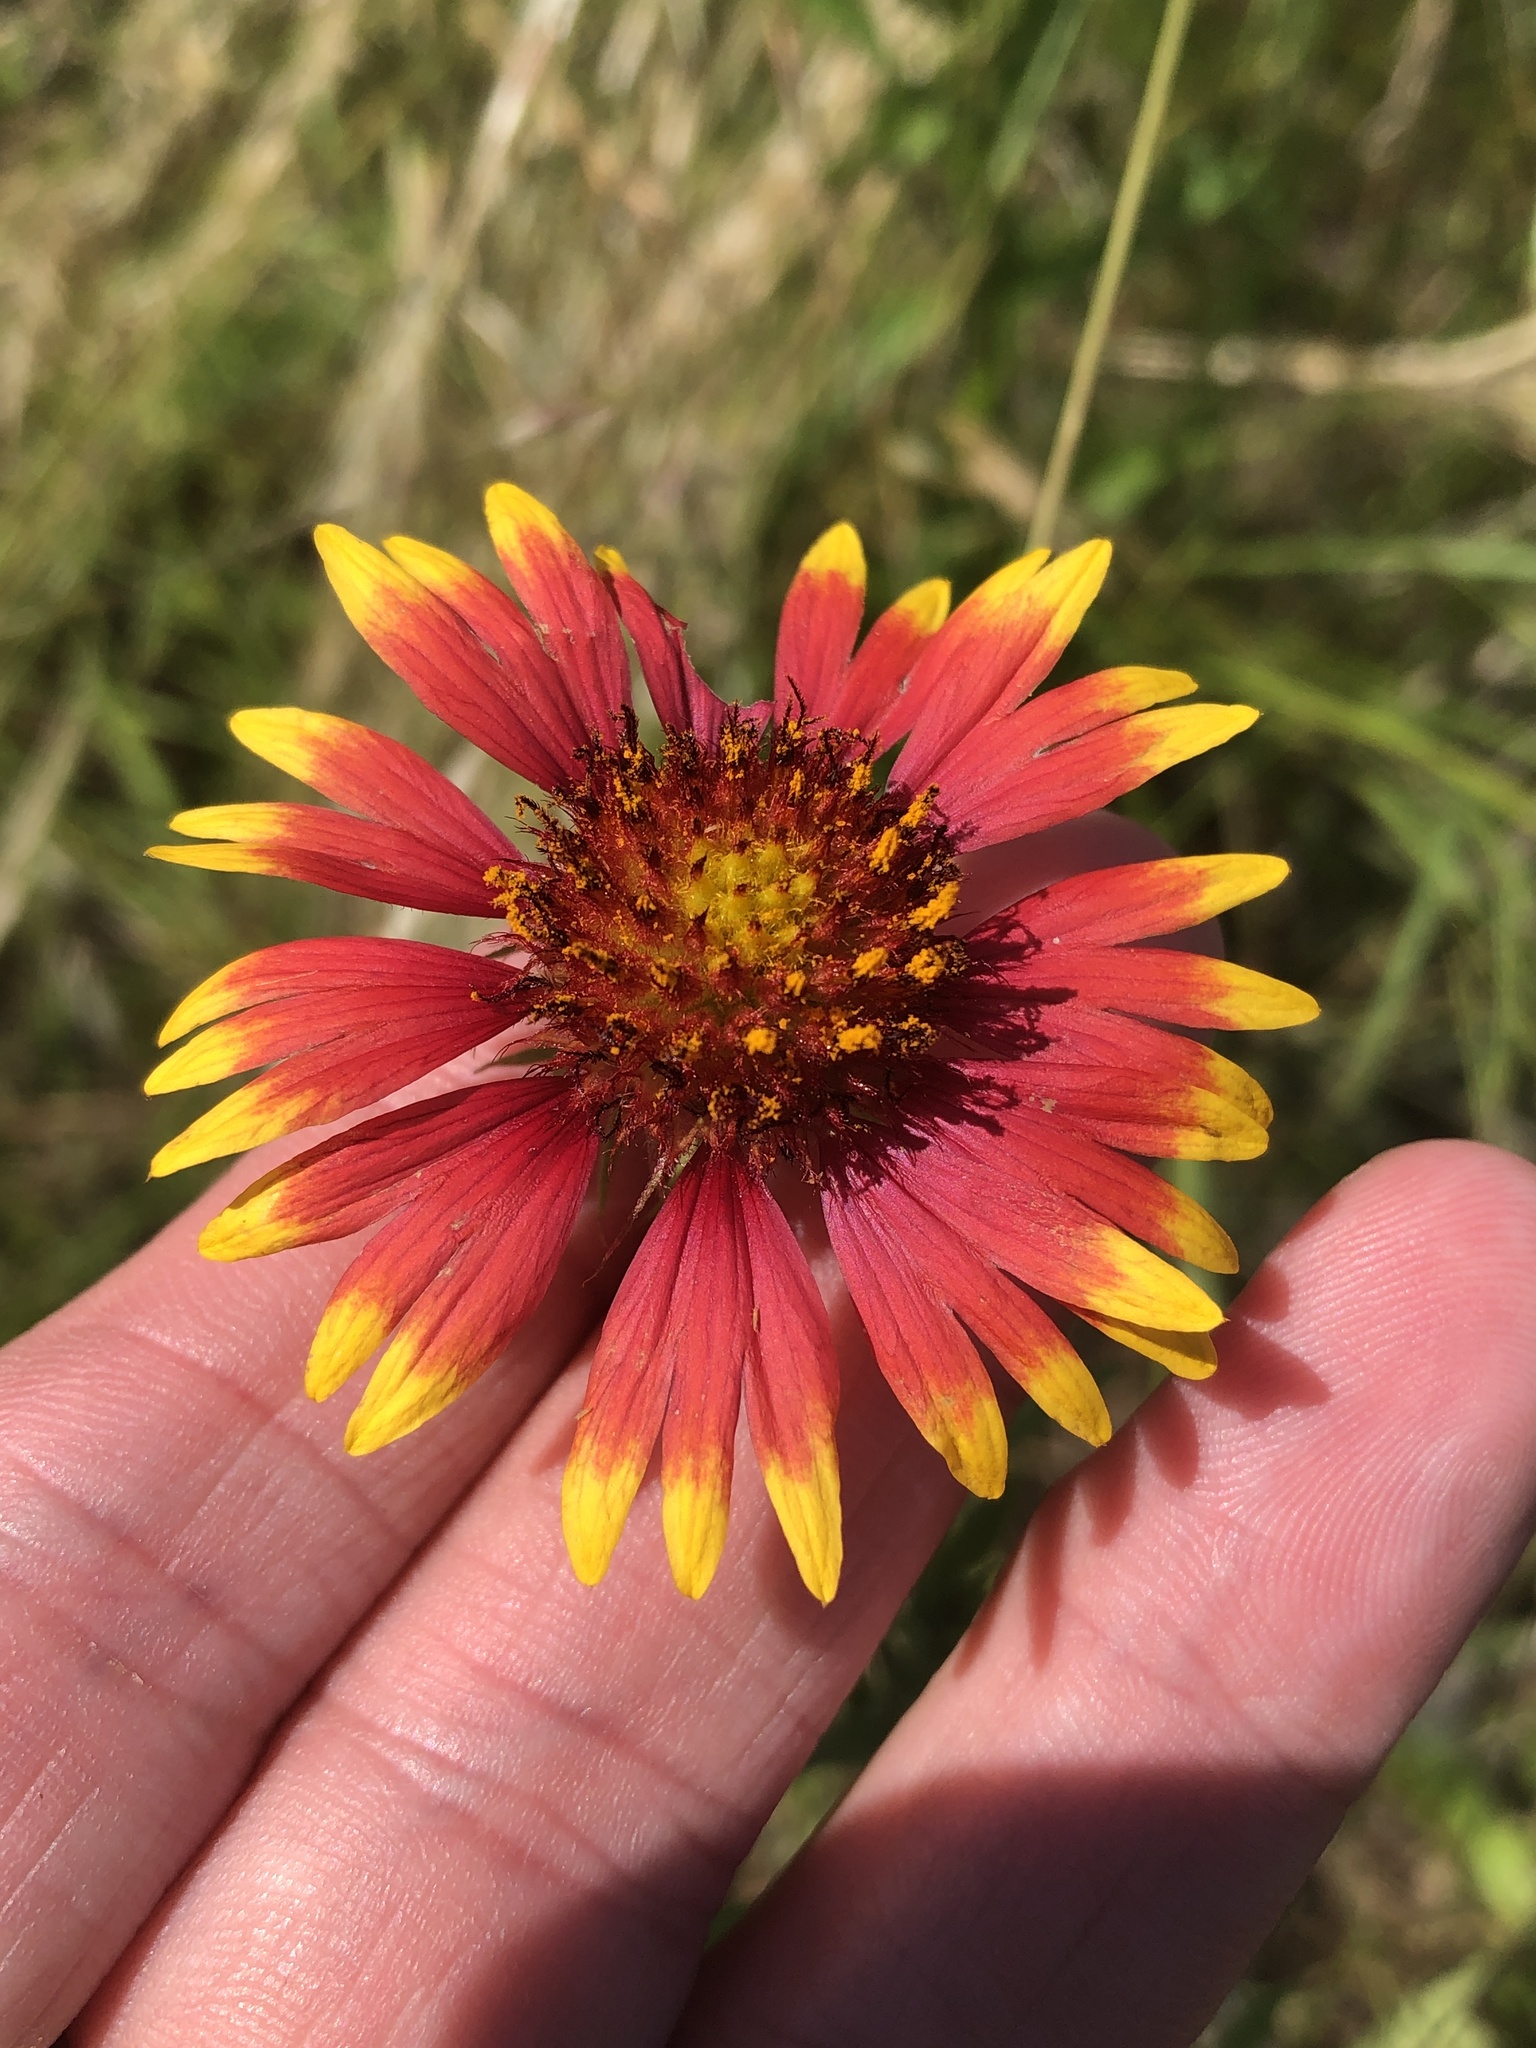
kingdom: Plantae
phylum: Tracheophyta
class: Magnoliopsida
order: Asterales
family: Asteraceae
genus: Gaillardia
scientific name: Gaillardia pulchella
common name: Firewheel
